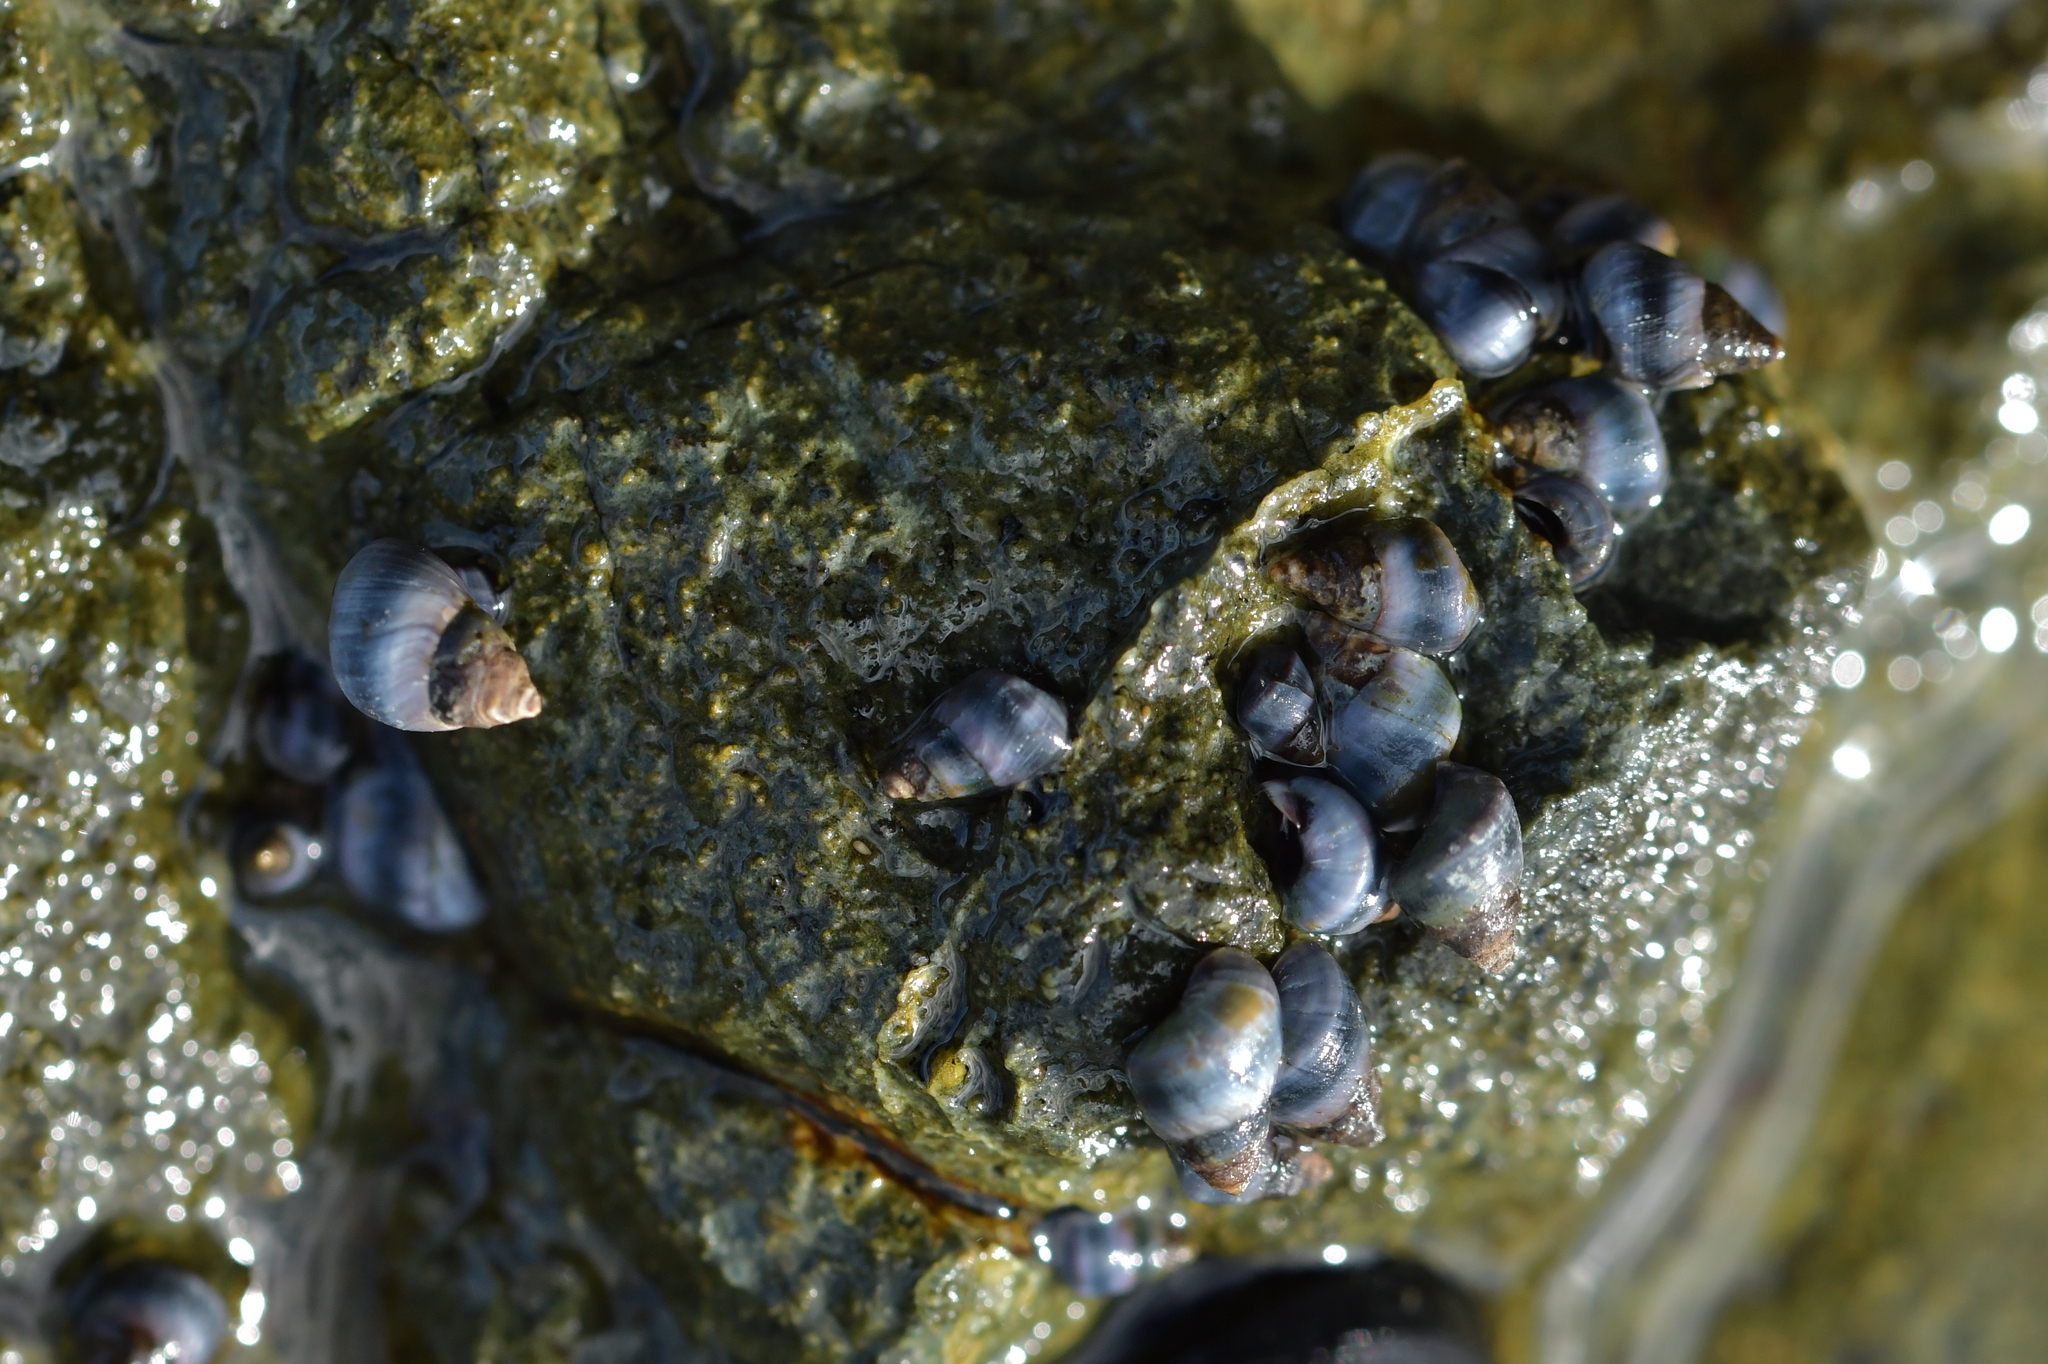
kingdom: Animalia
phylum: Mollusca
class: Gastropoda
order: Littorinimorpha
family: Littorinidae
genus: Austrolittorina
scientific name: Austrolittorina antipodum
